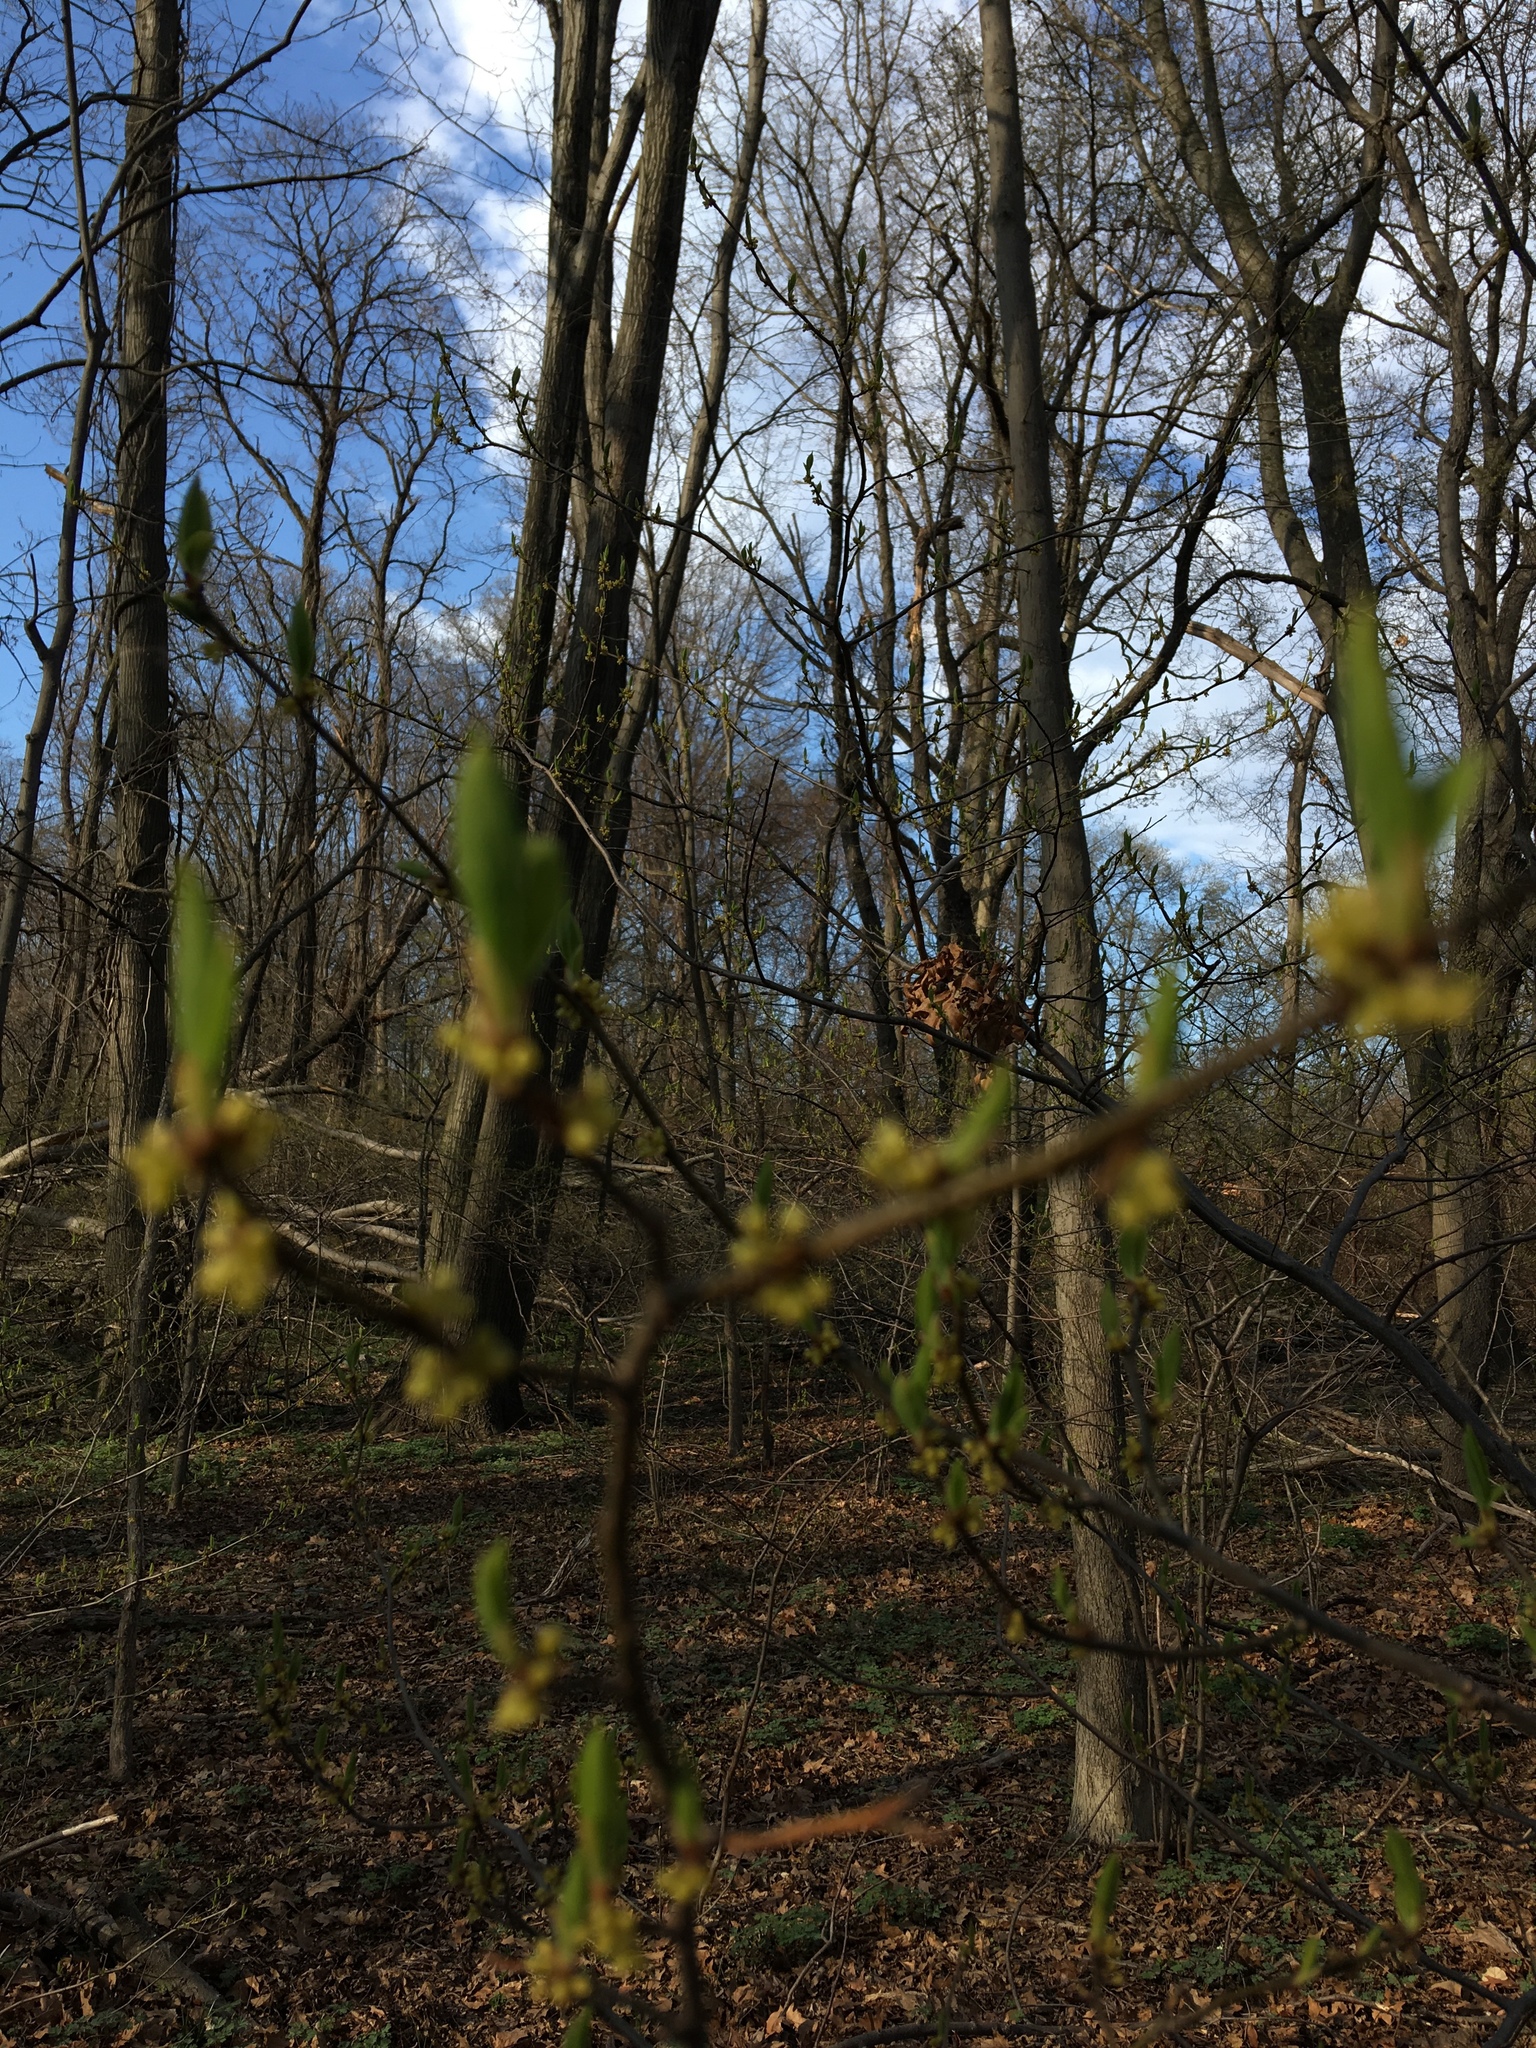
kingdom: Plantae
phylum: Tracheophyta
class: Magnoliopsida
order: Laurales
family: Lauraceae
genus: Lindera
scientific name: Lindera benzoin
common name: Spicebush
